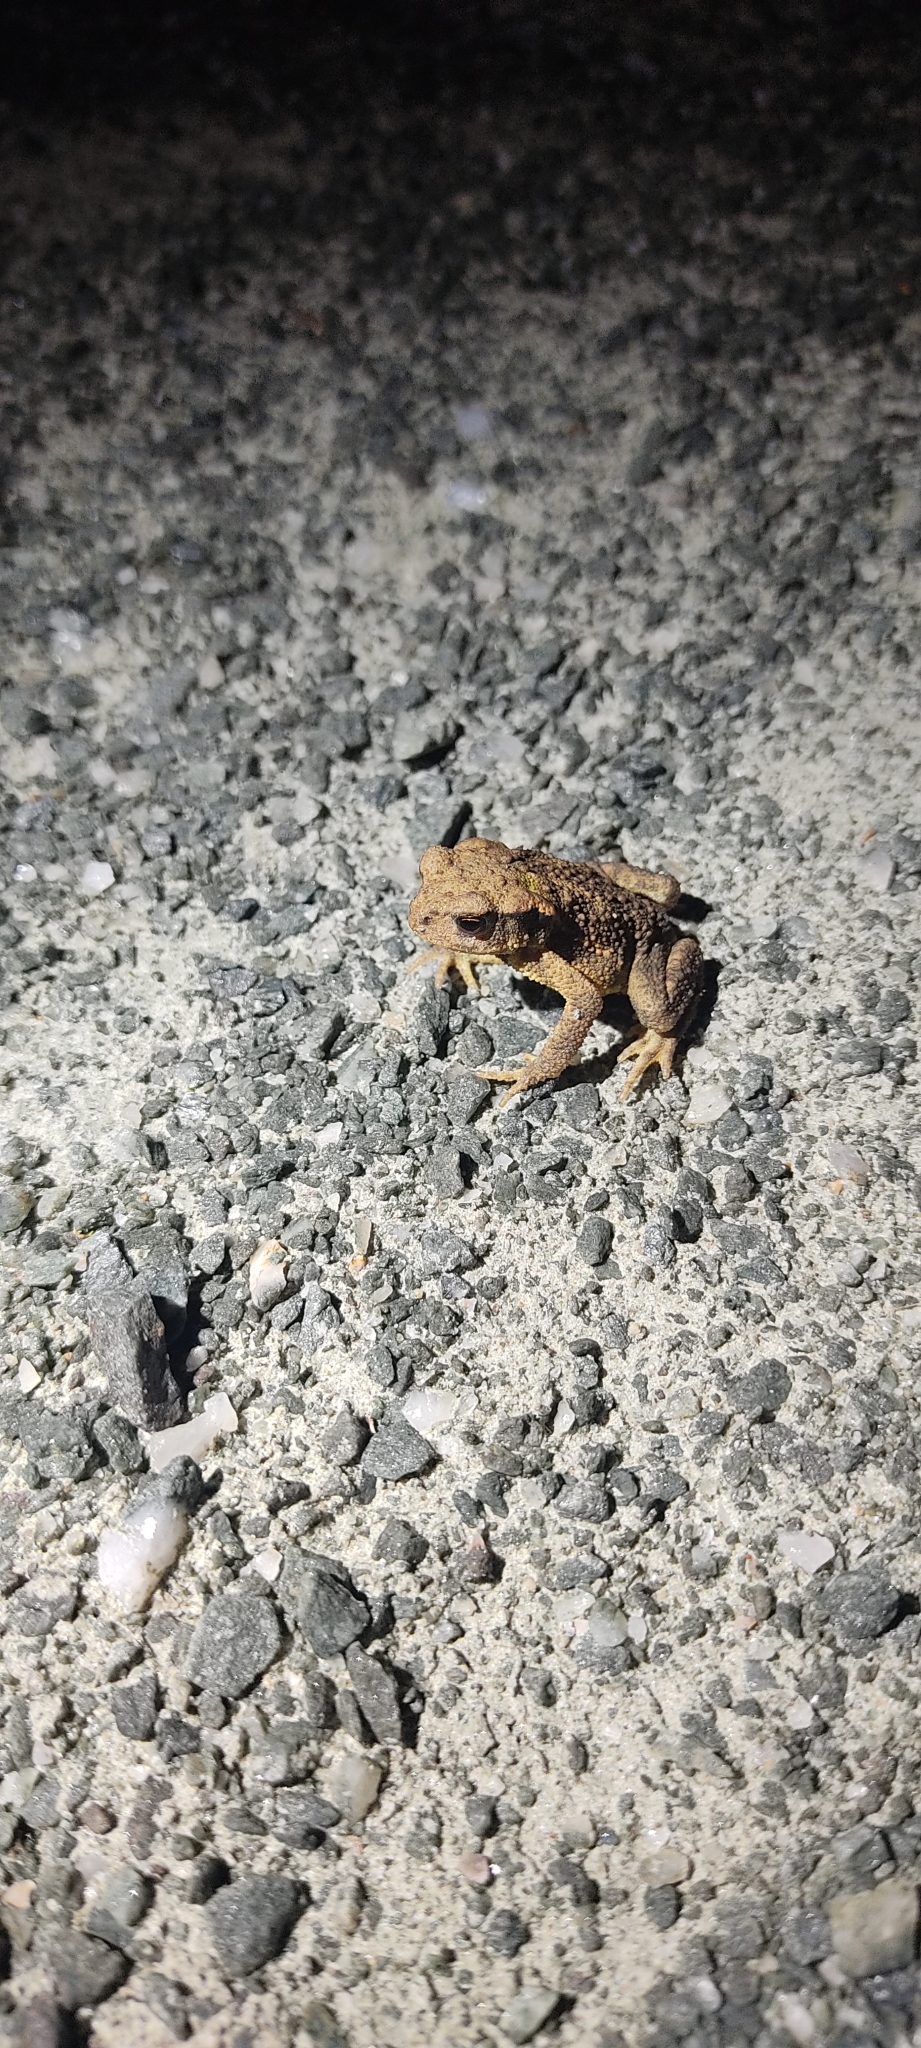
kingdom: Animalia
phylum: Chordata
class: Amphibia
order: Anura
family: Bufonidae
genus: Bufo
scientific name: Bufo spinosus
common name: Western common toad
